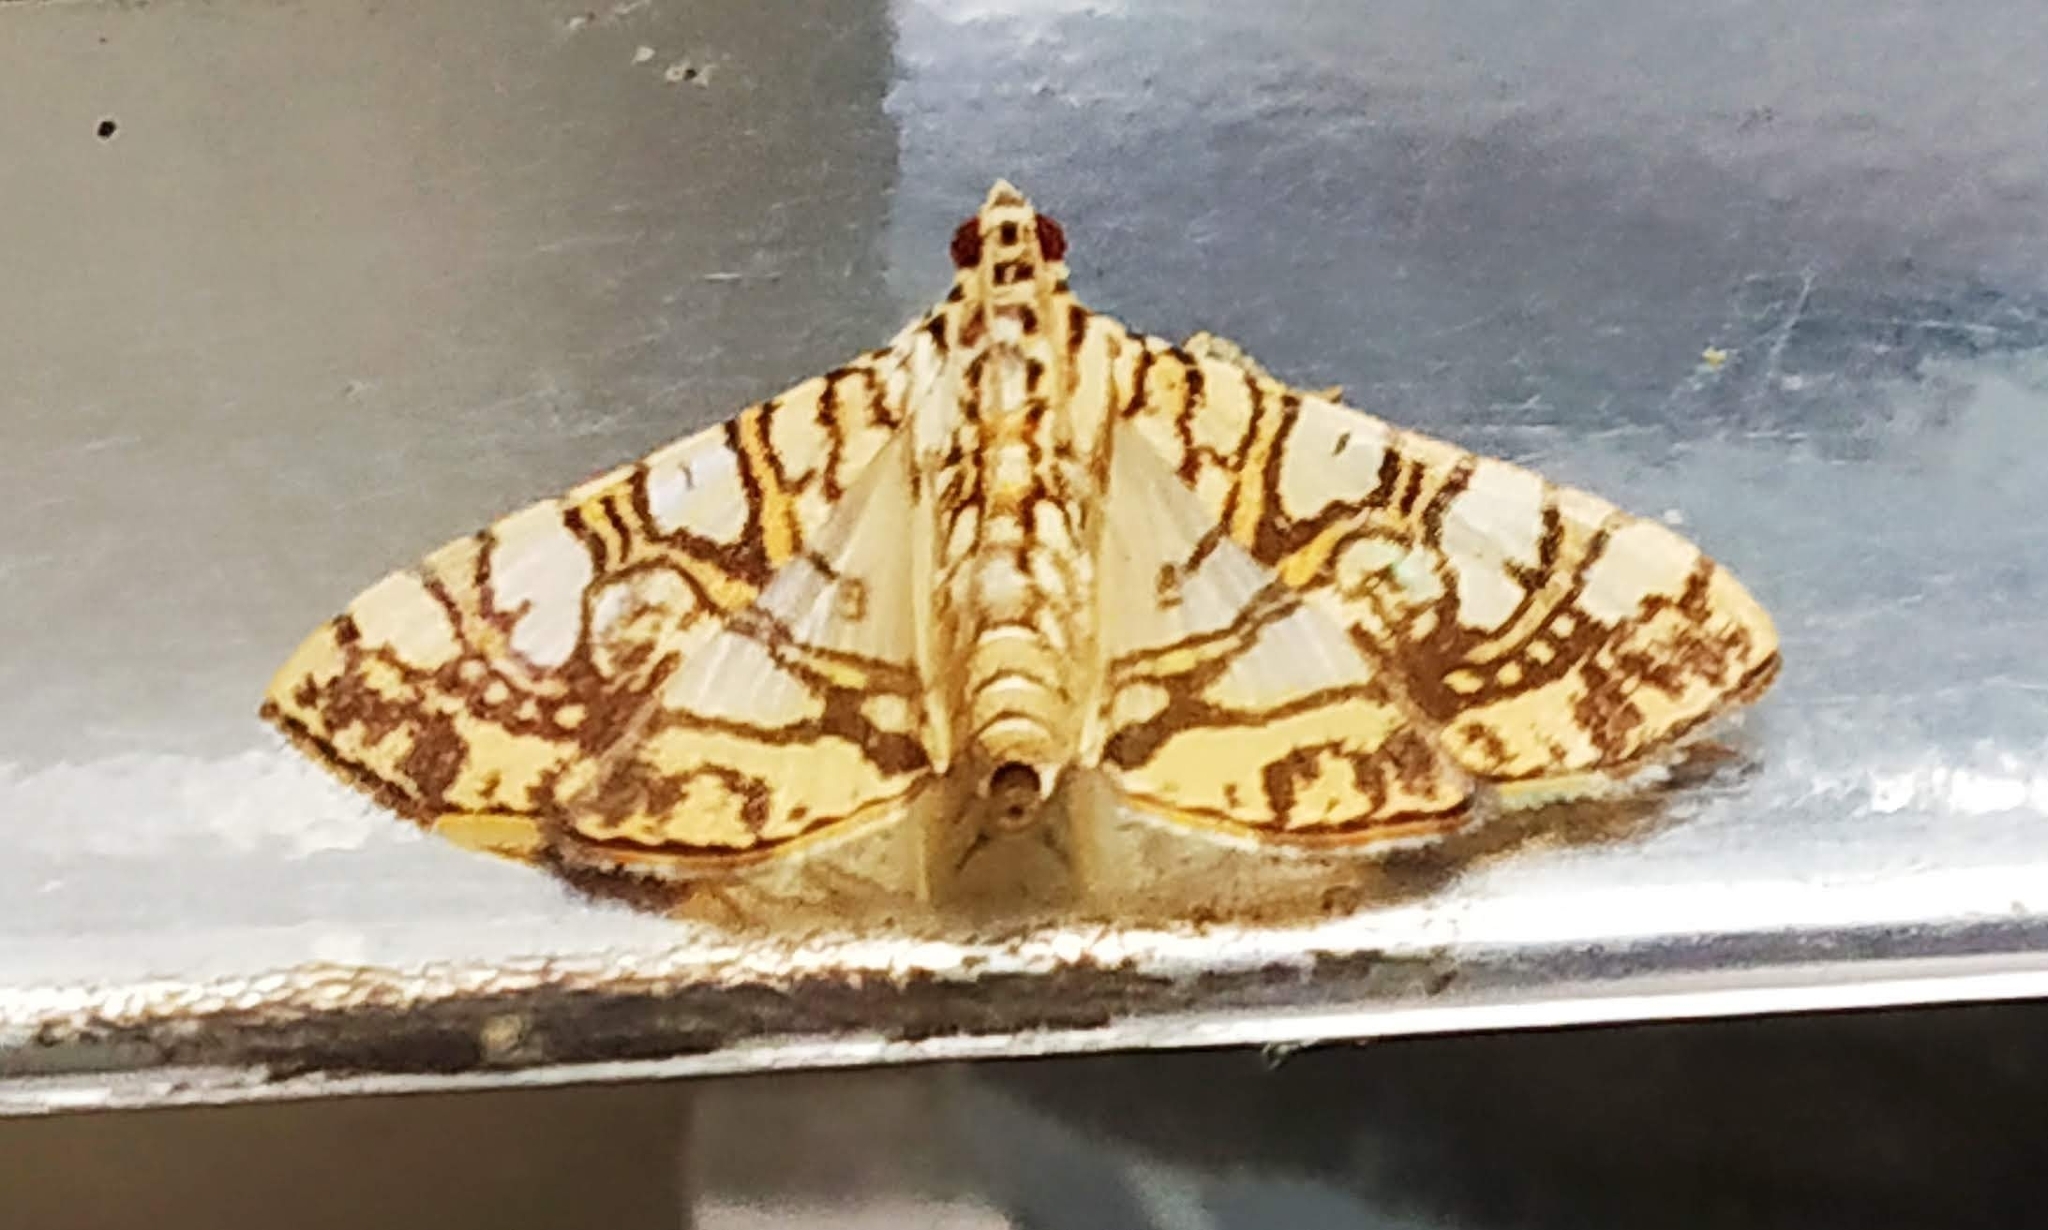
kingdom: Animalia
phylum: Arthropoda
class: Insecta
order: Lepidoptera
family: Crambidae
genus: Glyphodes
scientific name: Glyphodes caesalis
